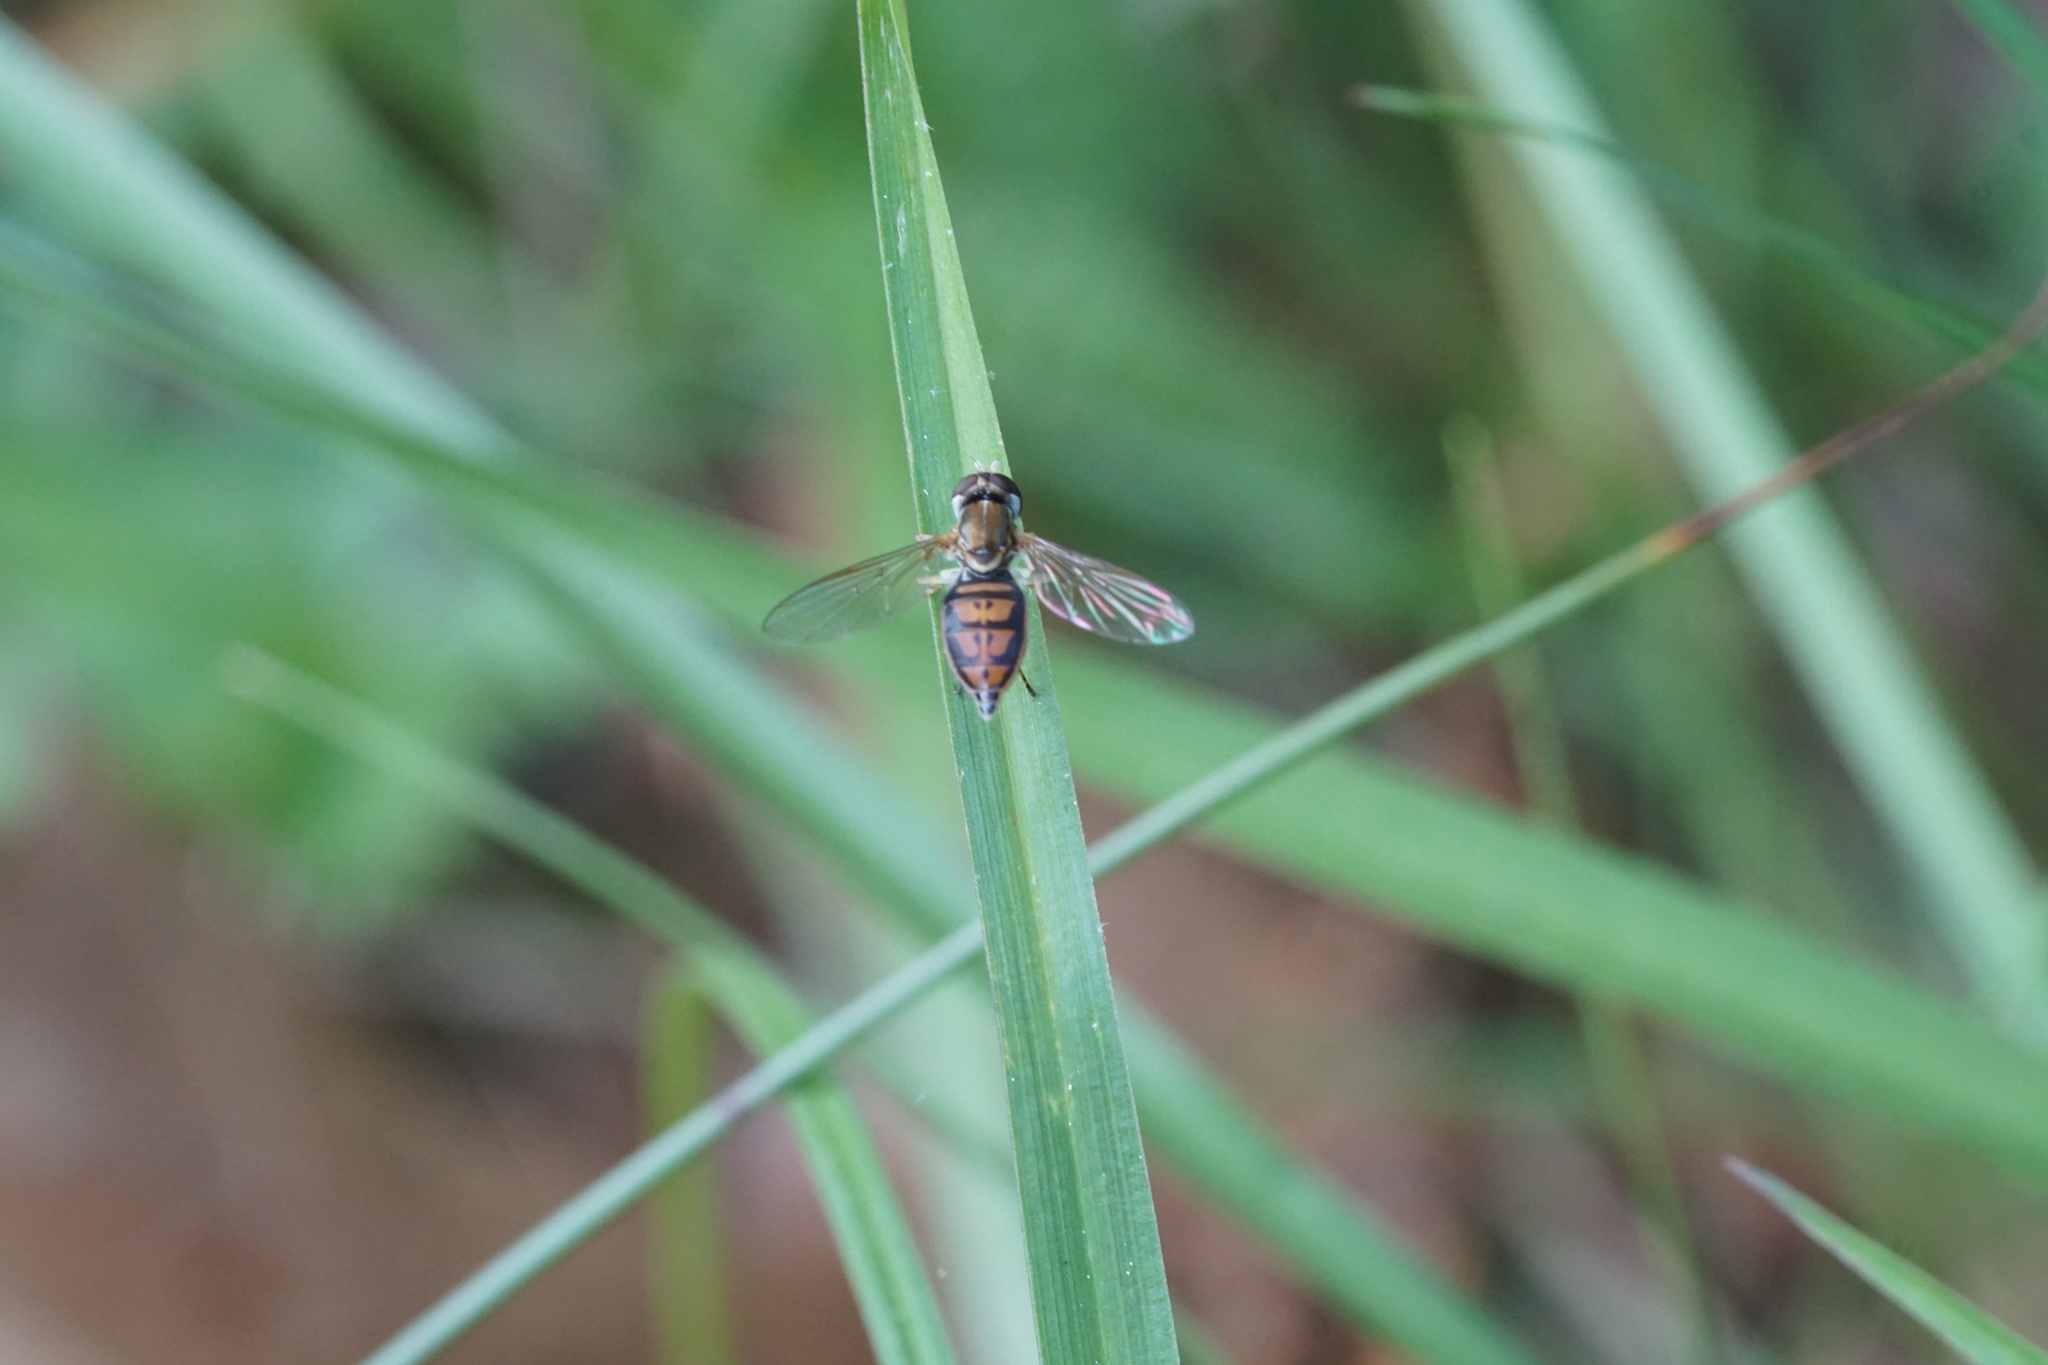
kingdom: Animalia
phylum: Arthropoda
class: Insecta
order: Diptera
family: Syrphidae
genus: Toxomerus
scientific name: Toxomerus marginatus
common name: Syrphid fly
